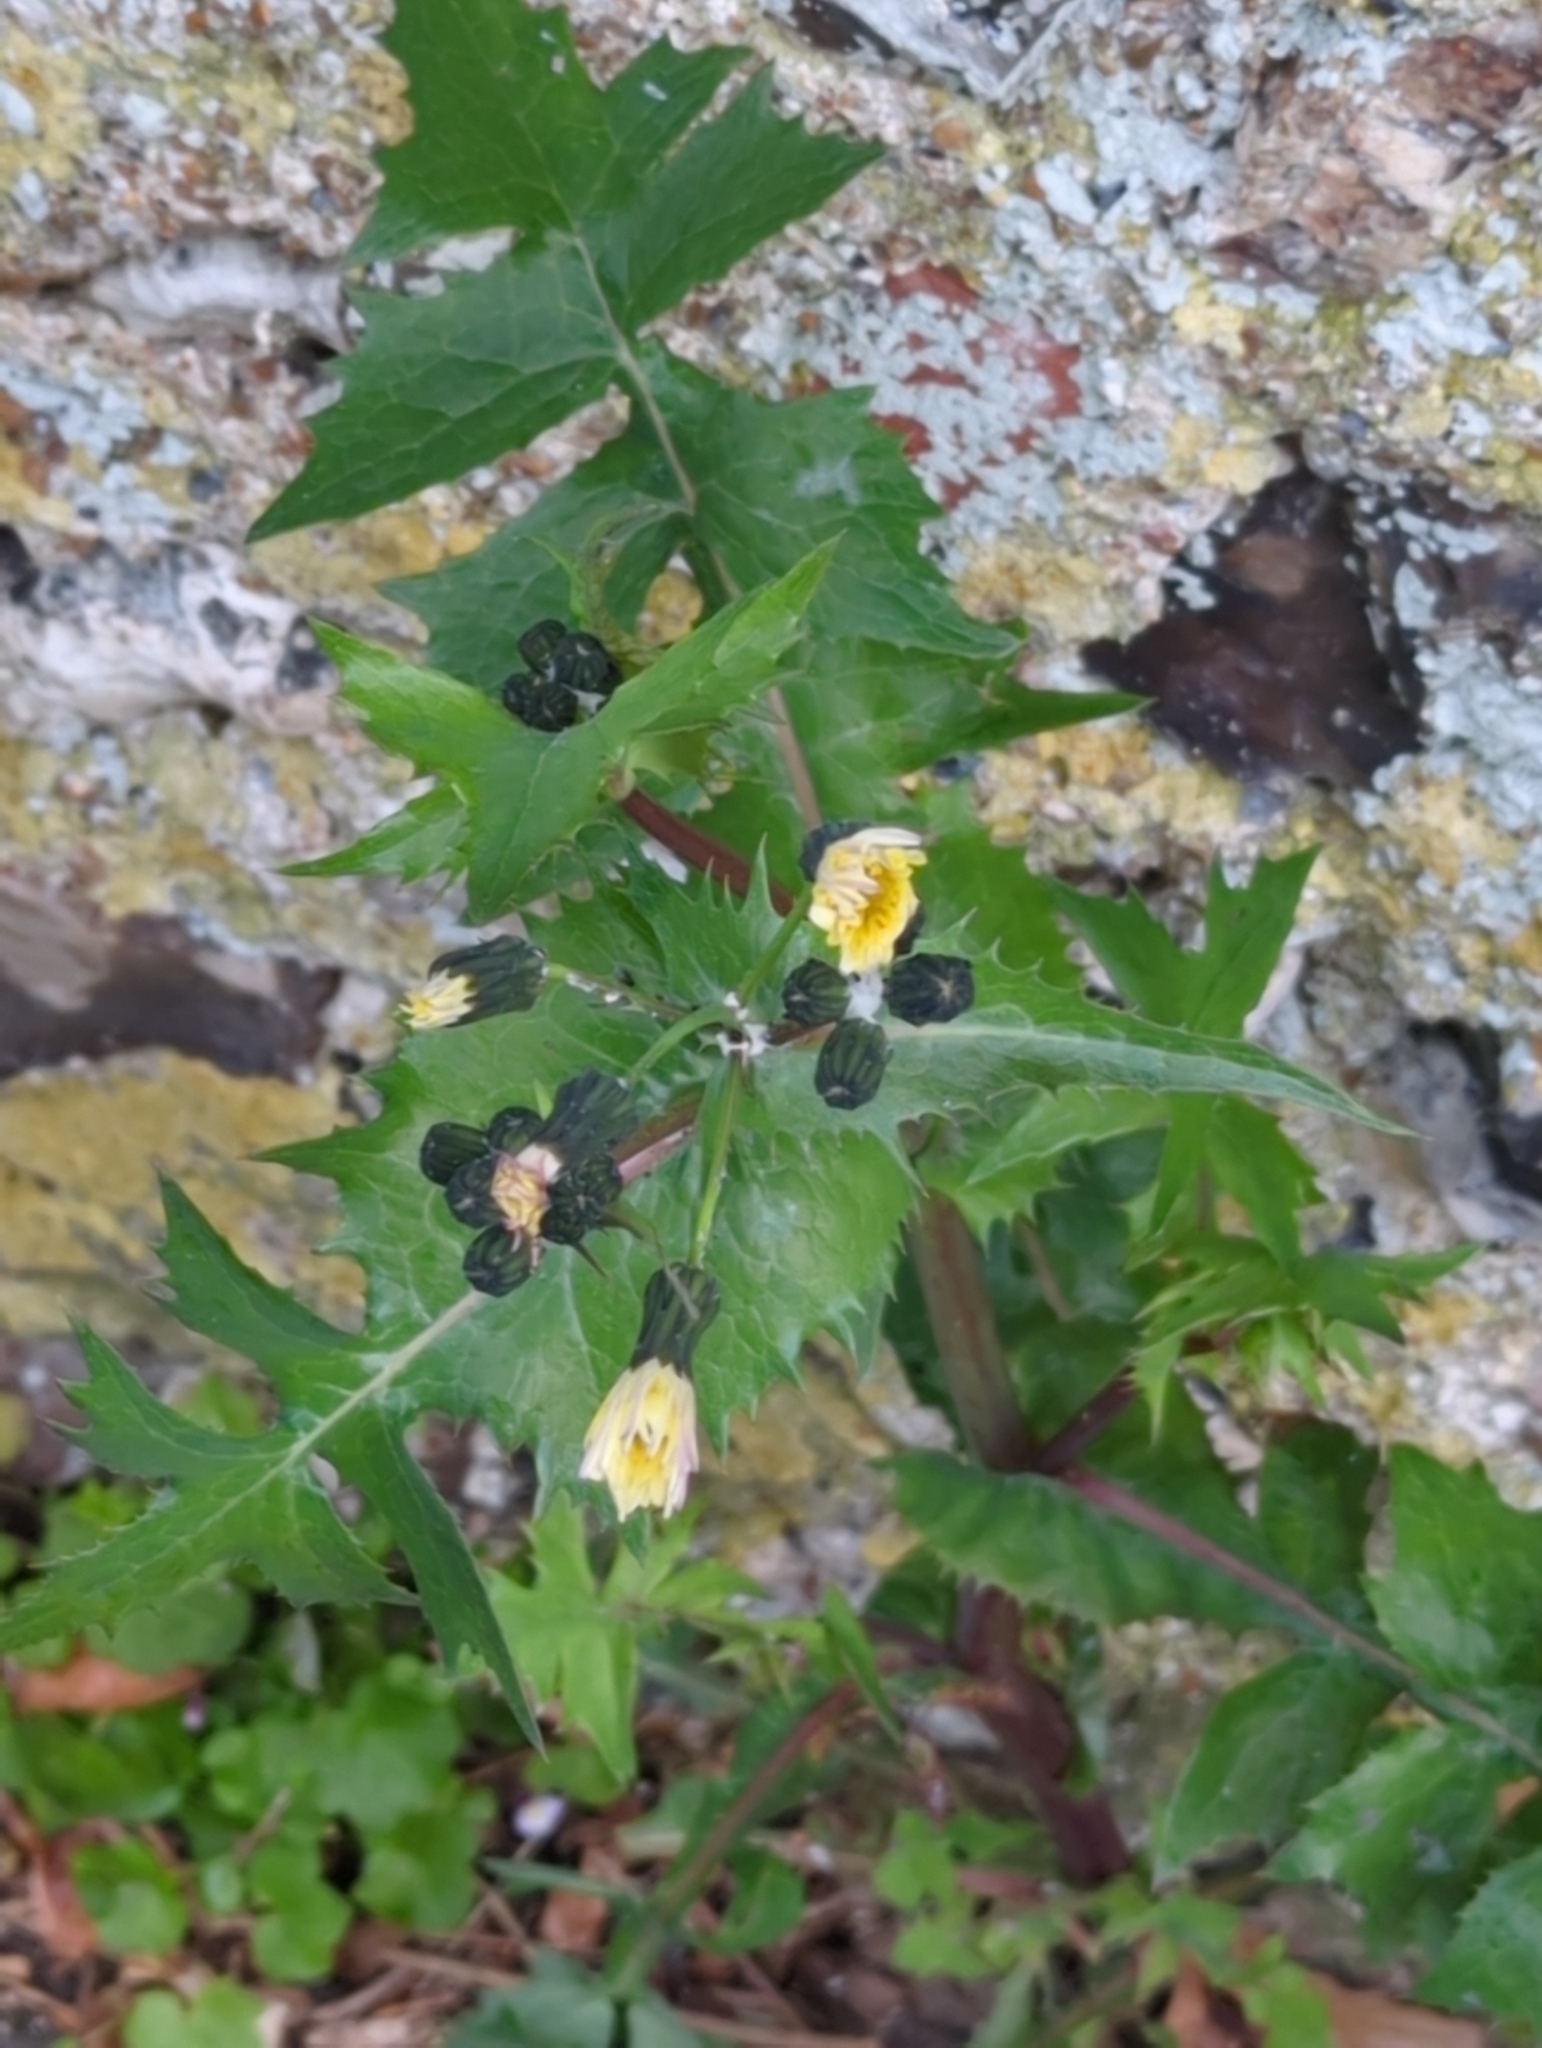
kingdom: Plantae
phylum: Tracheophyta
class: Magnoliopsida
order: Asterales
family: Asteraceae
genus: Sonchus
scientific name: Sonchus oleraceus
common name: Common sowthistle
